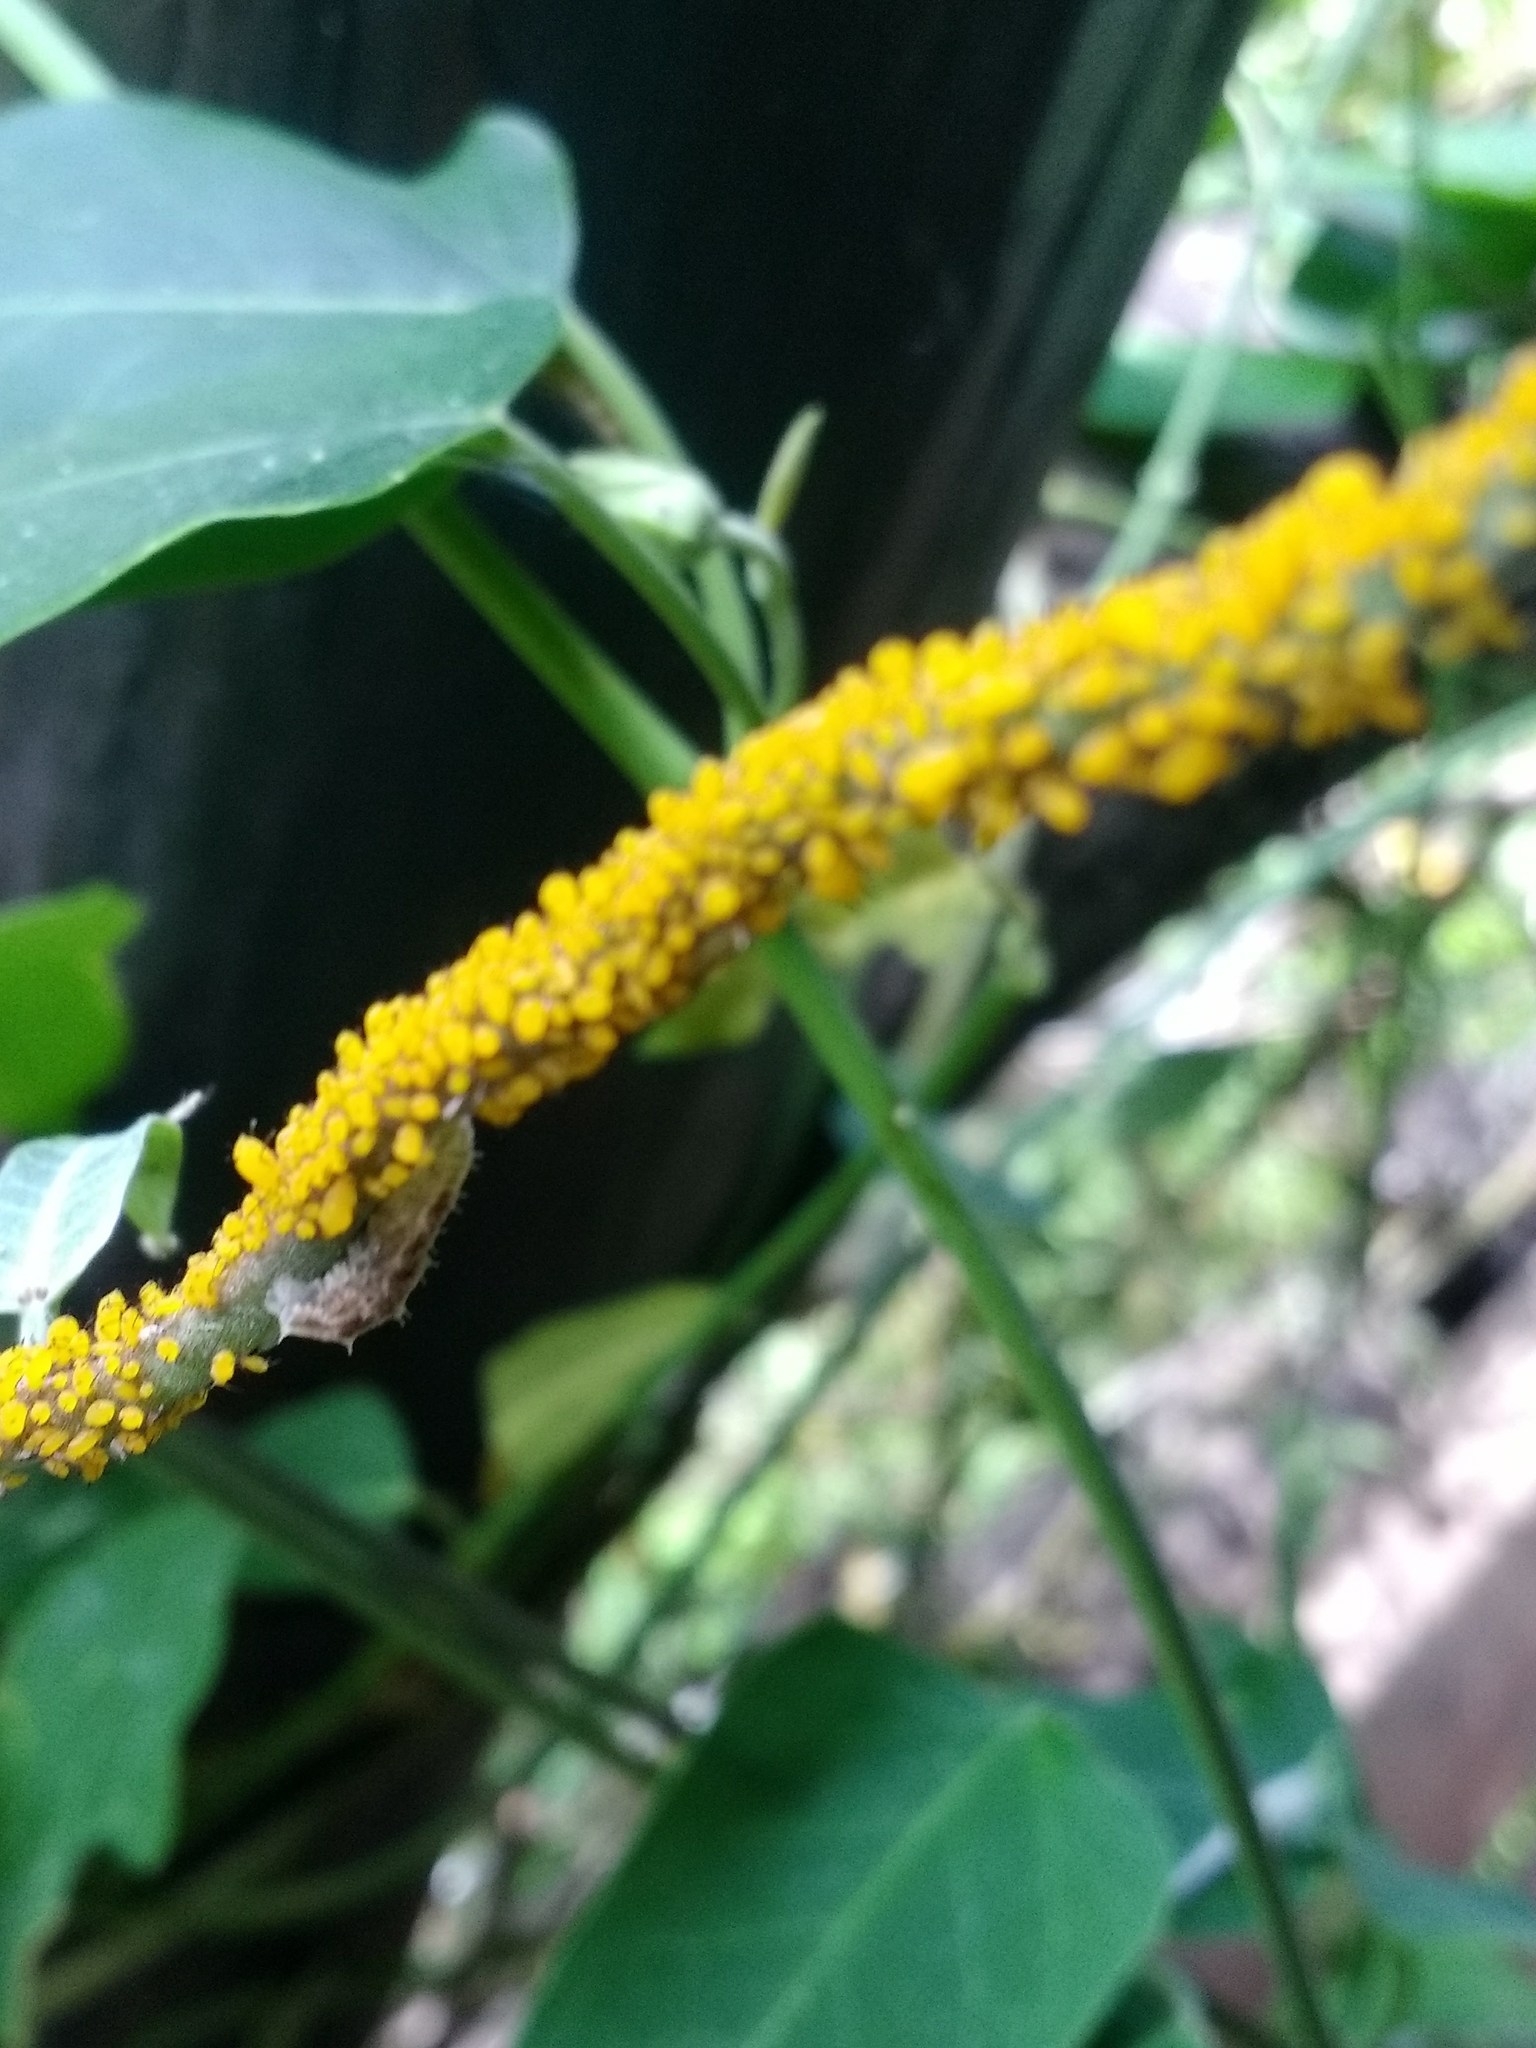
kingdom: Animalia
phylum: Arthropoda
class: Insecta
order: Hemiptera
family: Aphididae
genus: Aphis
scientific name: Aphis nerii
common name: Oleander aphid
